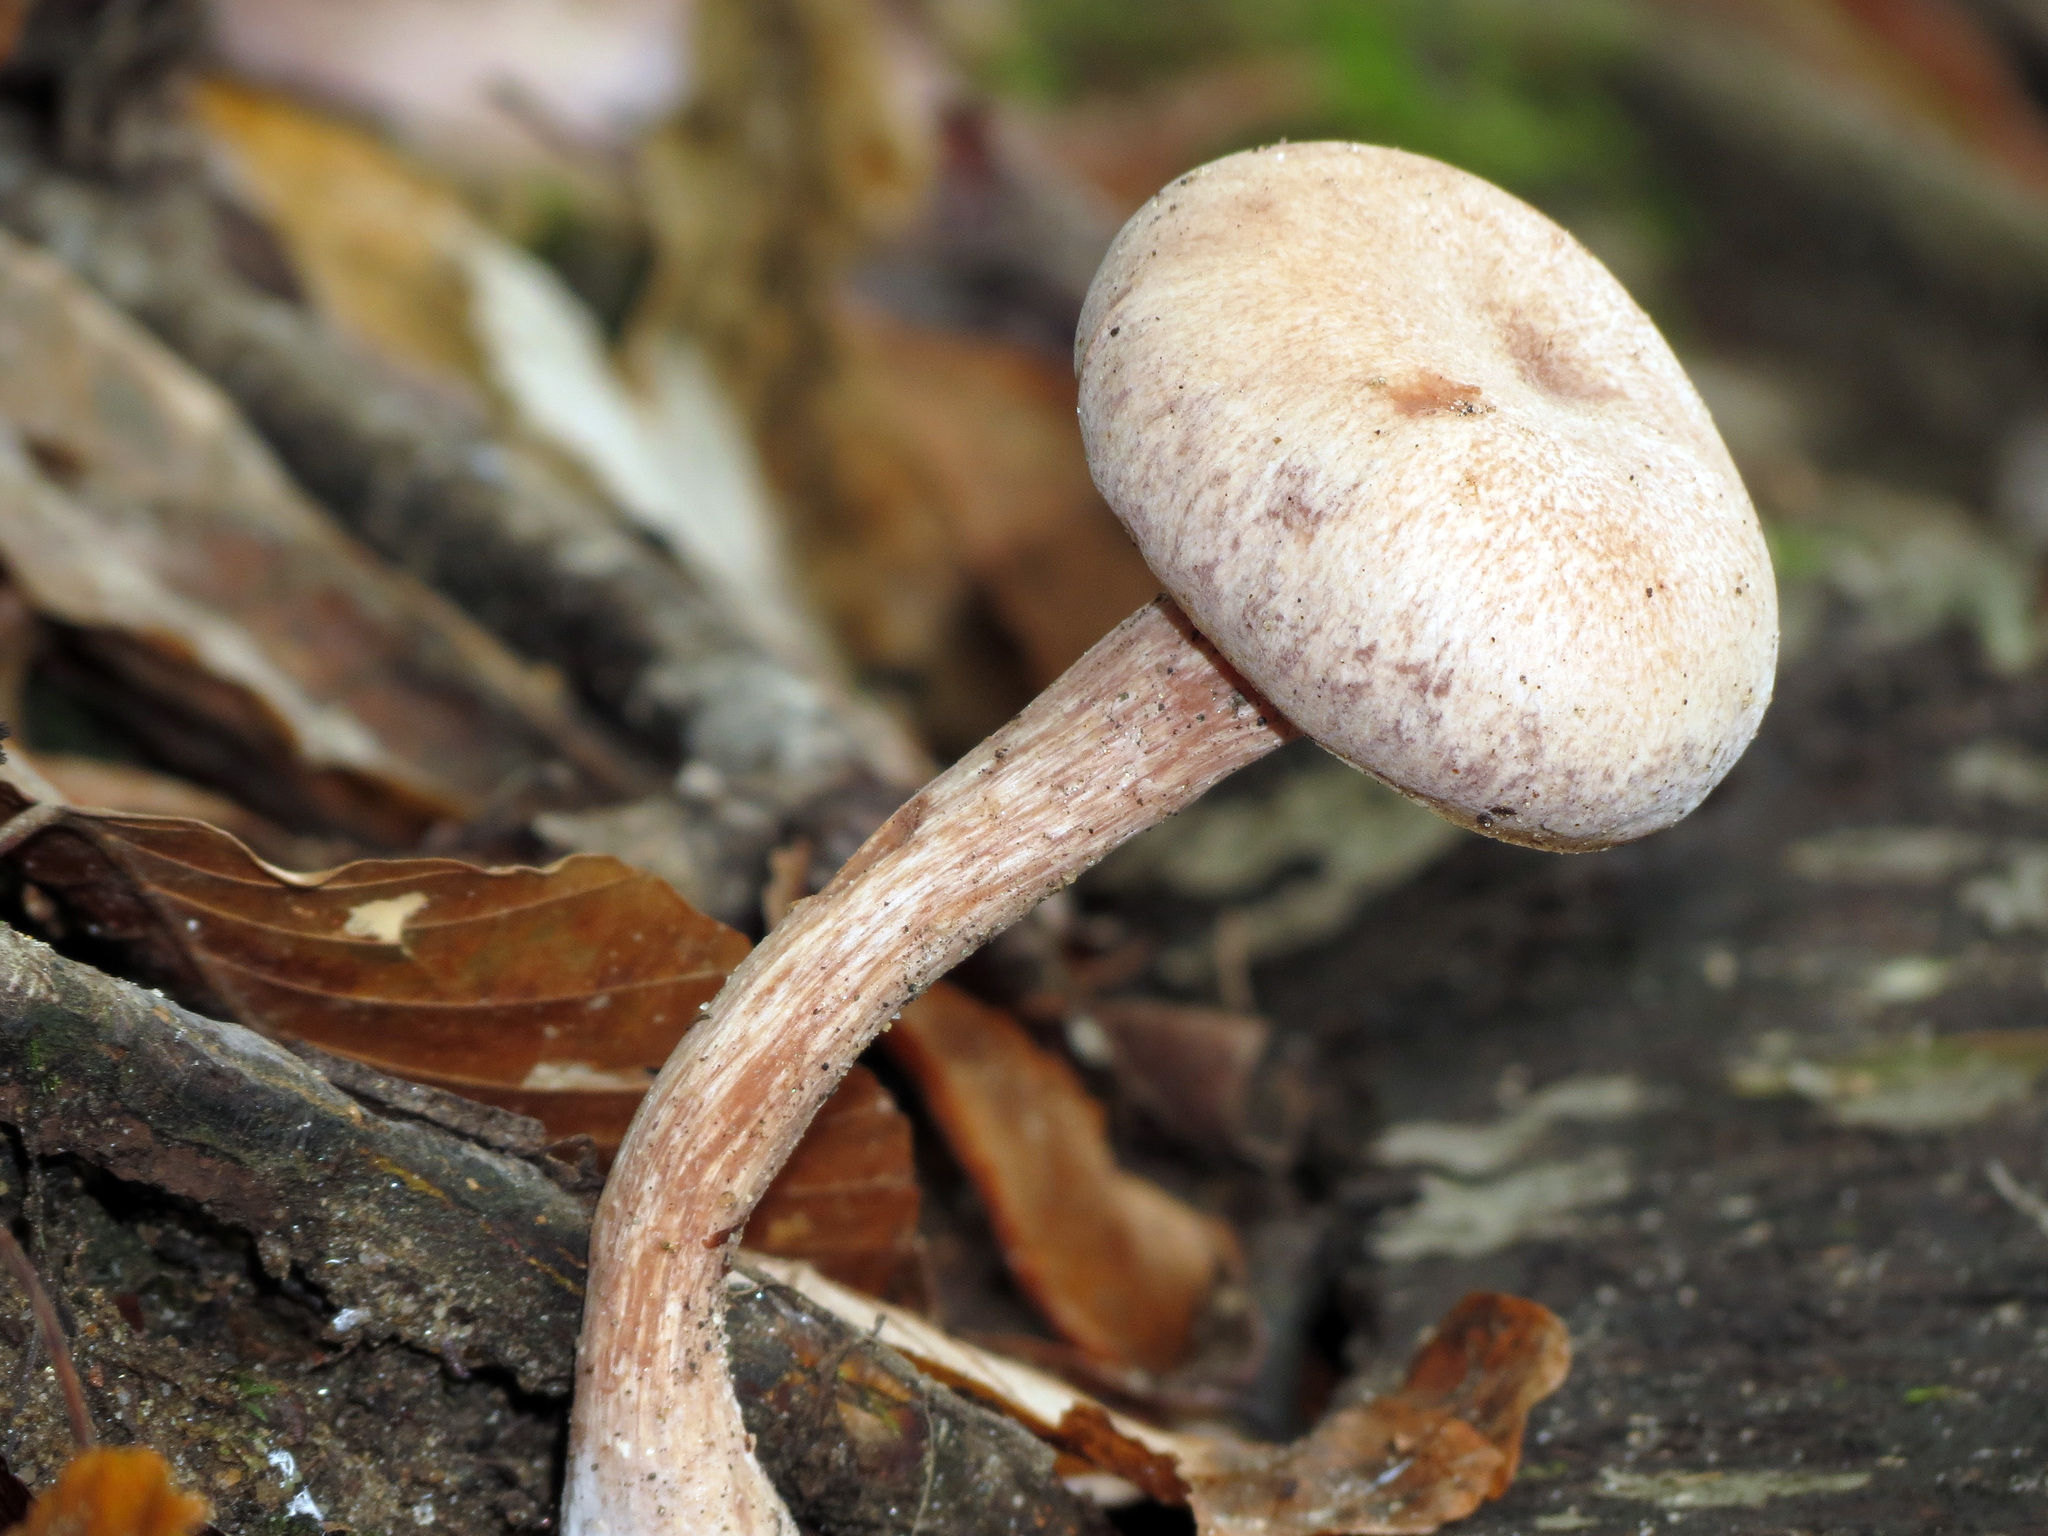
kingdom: Fungi
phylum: Basidiomycota
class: Agaricomycetes
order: Agaricales
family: Hydnangiaceae
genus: Laccaria
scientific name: Laccaria ochropurpurea
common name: Purple laccaria
